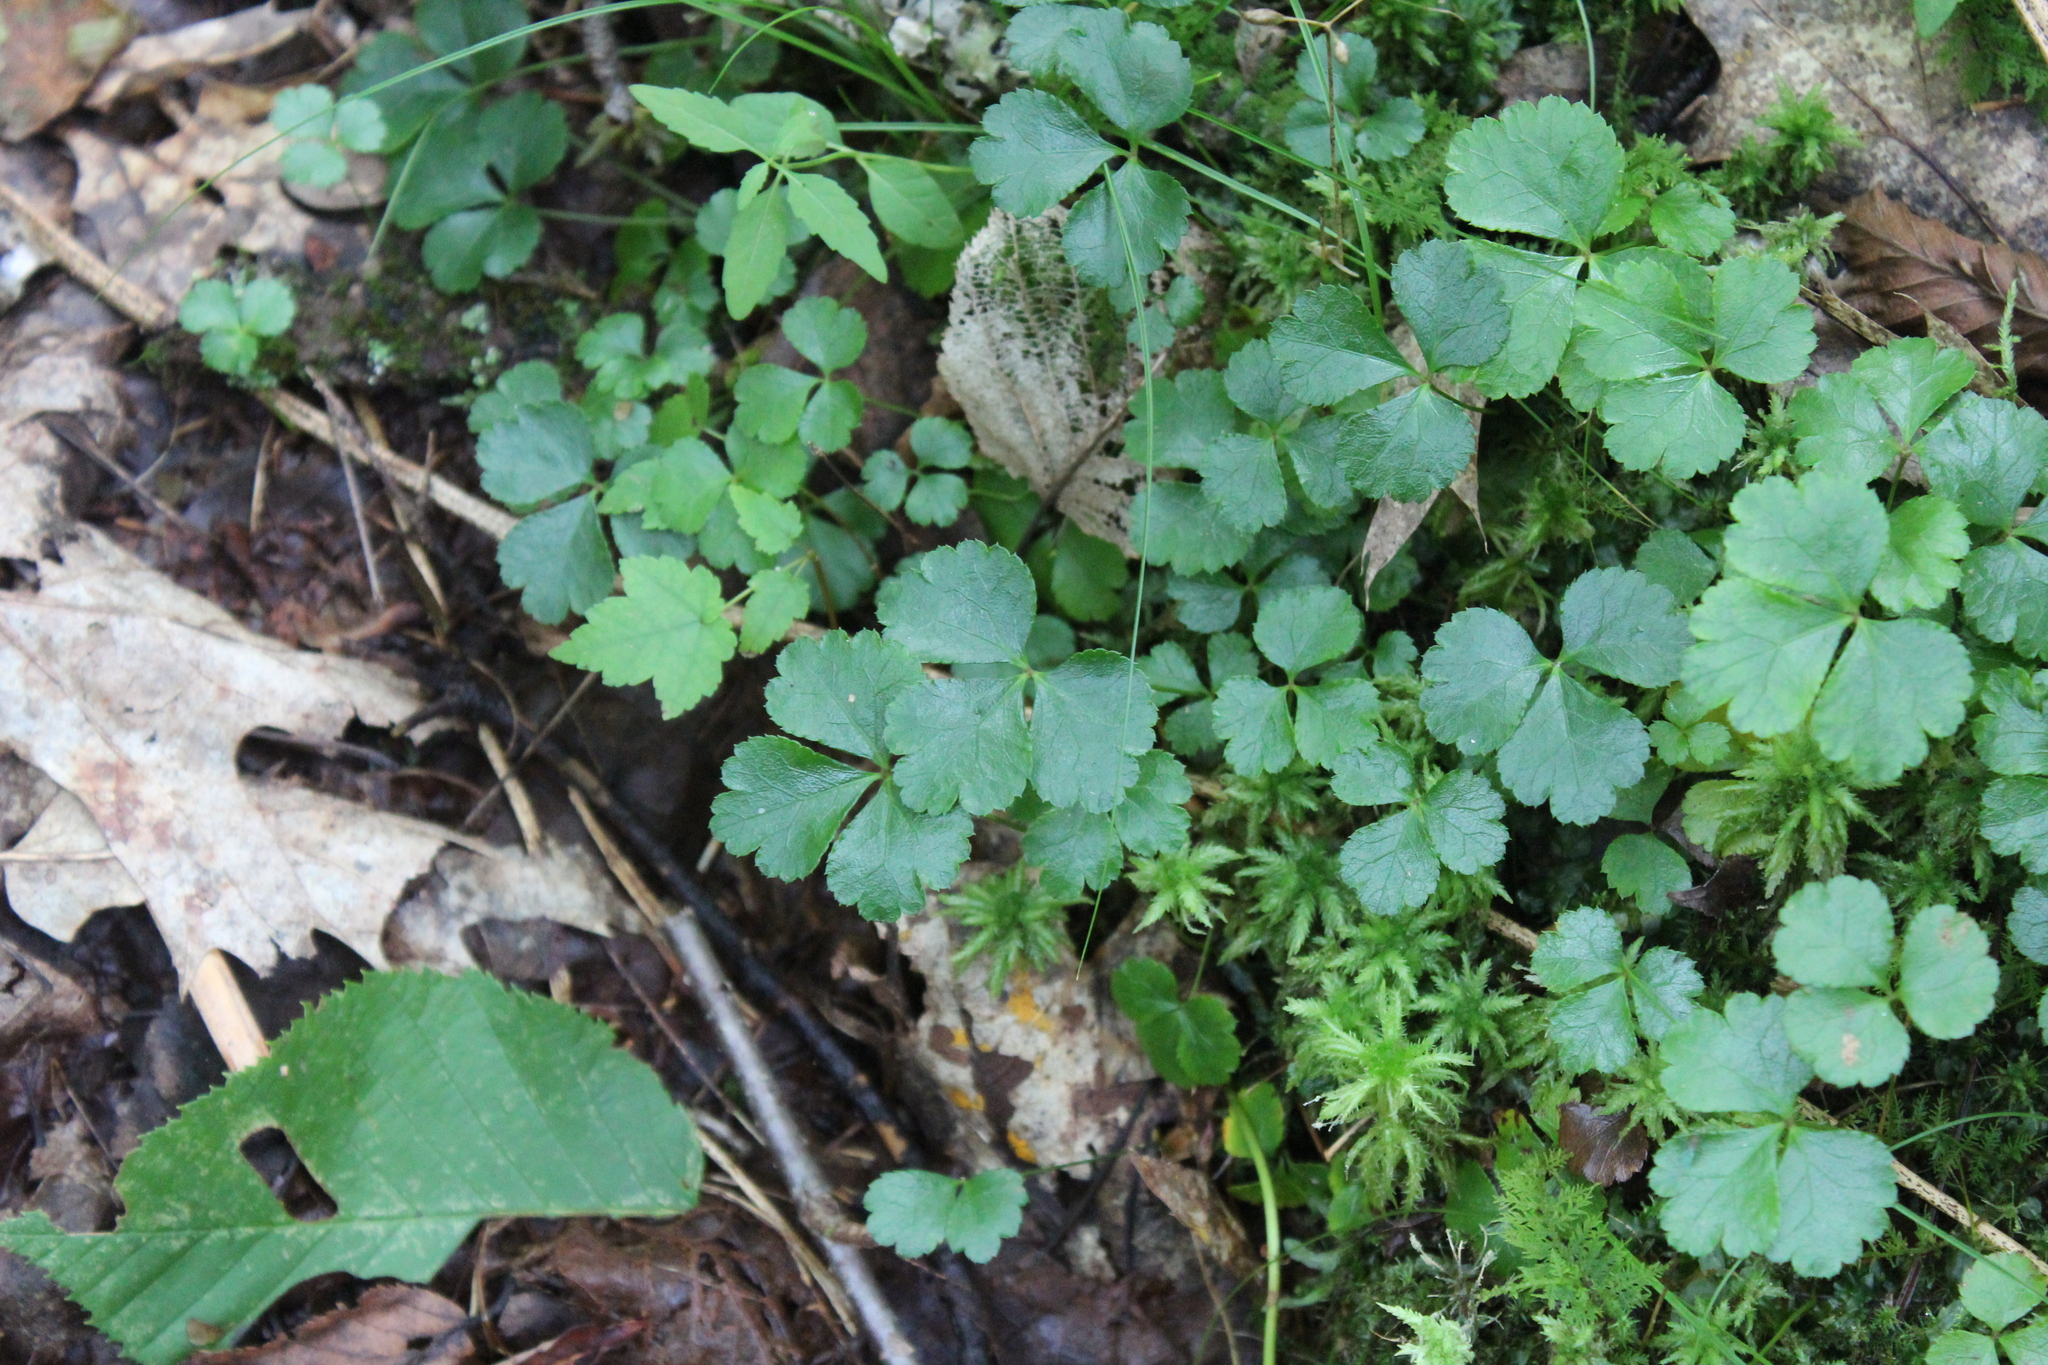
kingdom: Plantae
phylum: Tracheophyta
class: Magnoliopsida
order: Ranunculales
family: Ranunculaceae
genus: Coptis
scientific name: Coptis trifolia
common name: Canker-root
